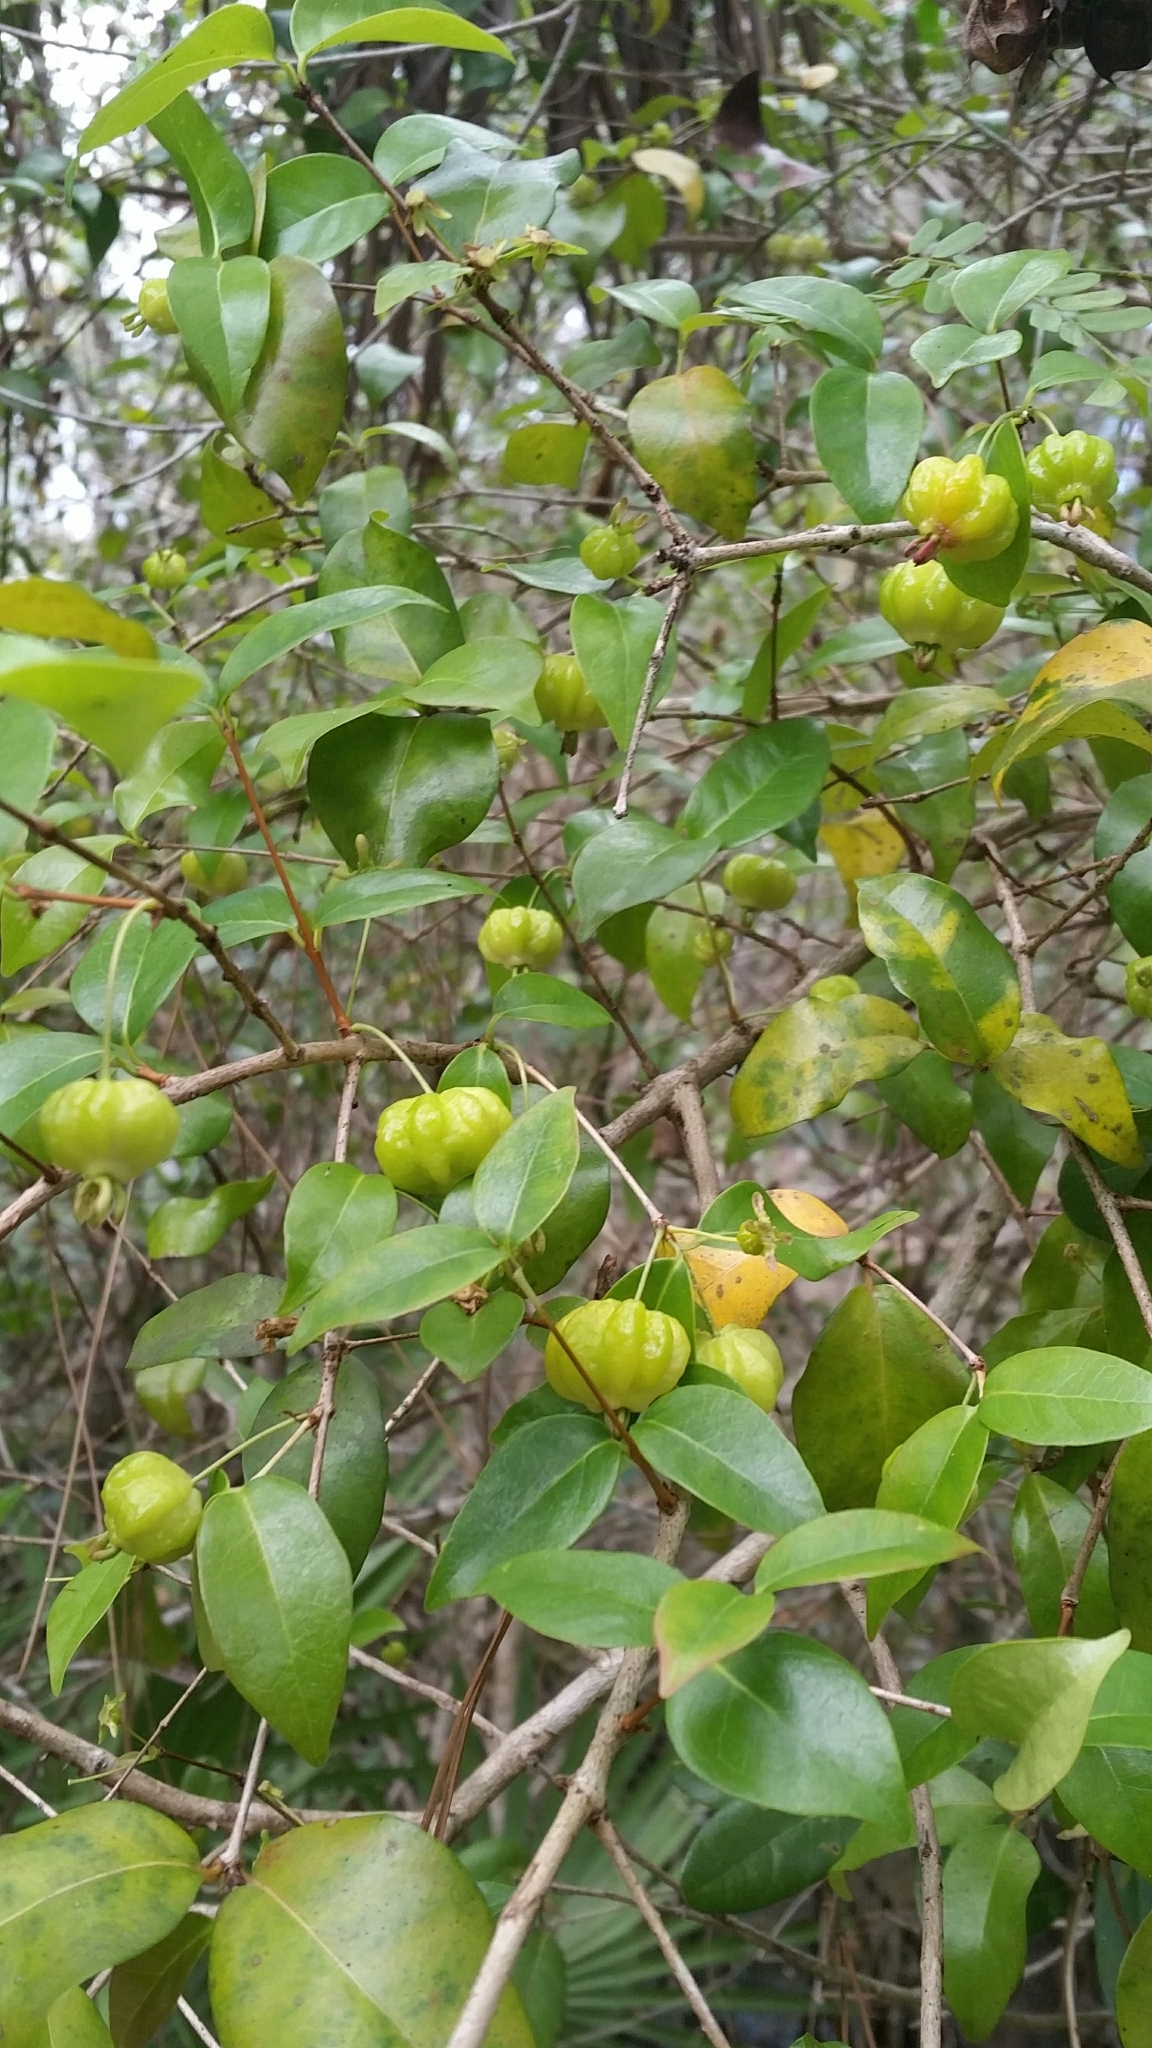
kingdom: Plantae
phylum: Tracheophyta
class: Magnoliopsida
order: Myrtales
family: Myrtaceae
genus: Eugenia
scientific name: Eugenia uniflora
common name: Surinam cherry
